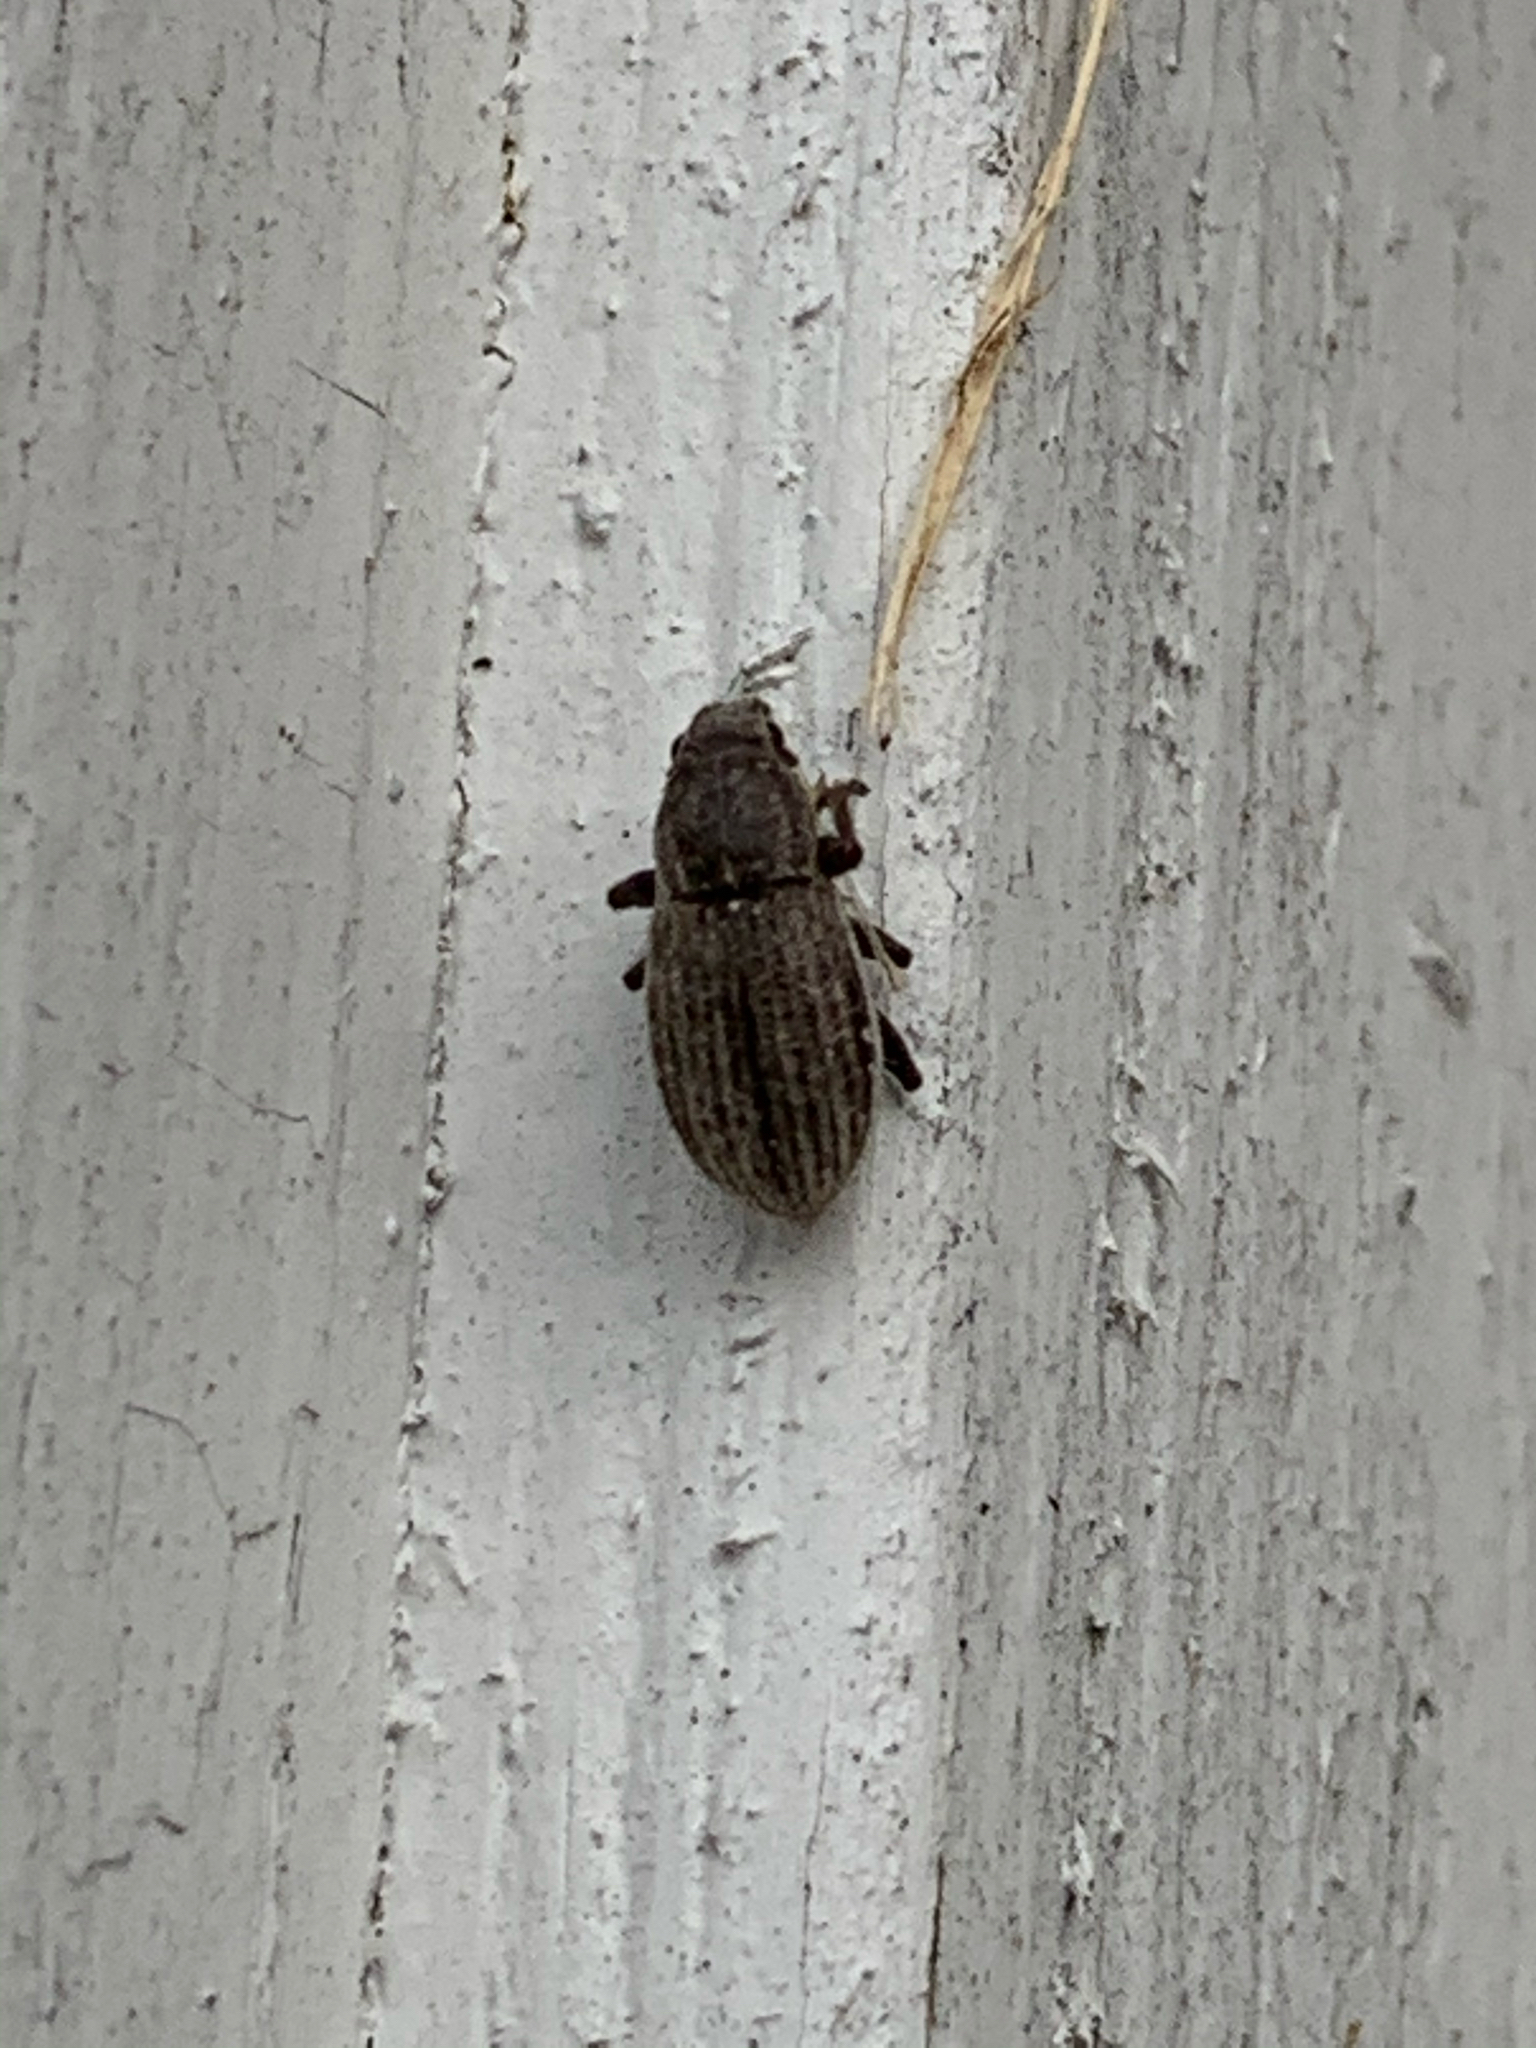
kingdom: Animalia
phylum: Arthropoda
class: Insecta
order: Coleoptera
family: Curculionidae
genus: Naupactus
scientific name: Naupactus leucoloma
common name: Whitefringed beetle
